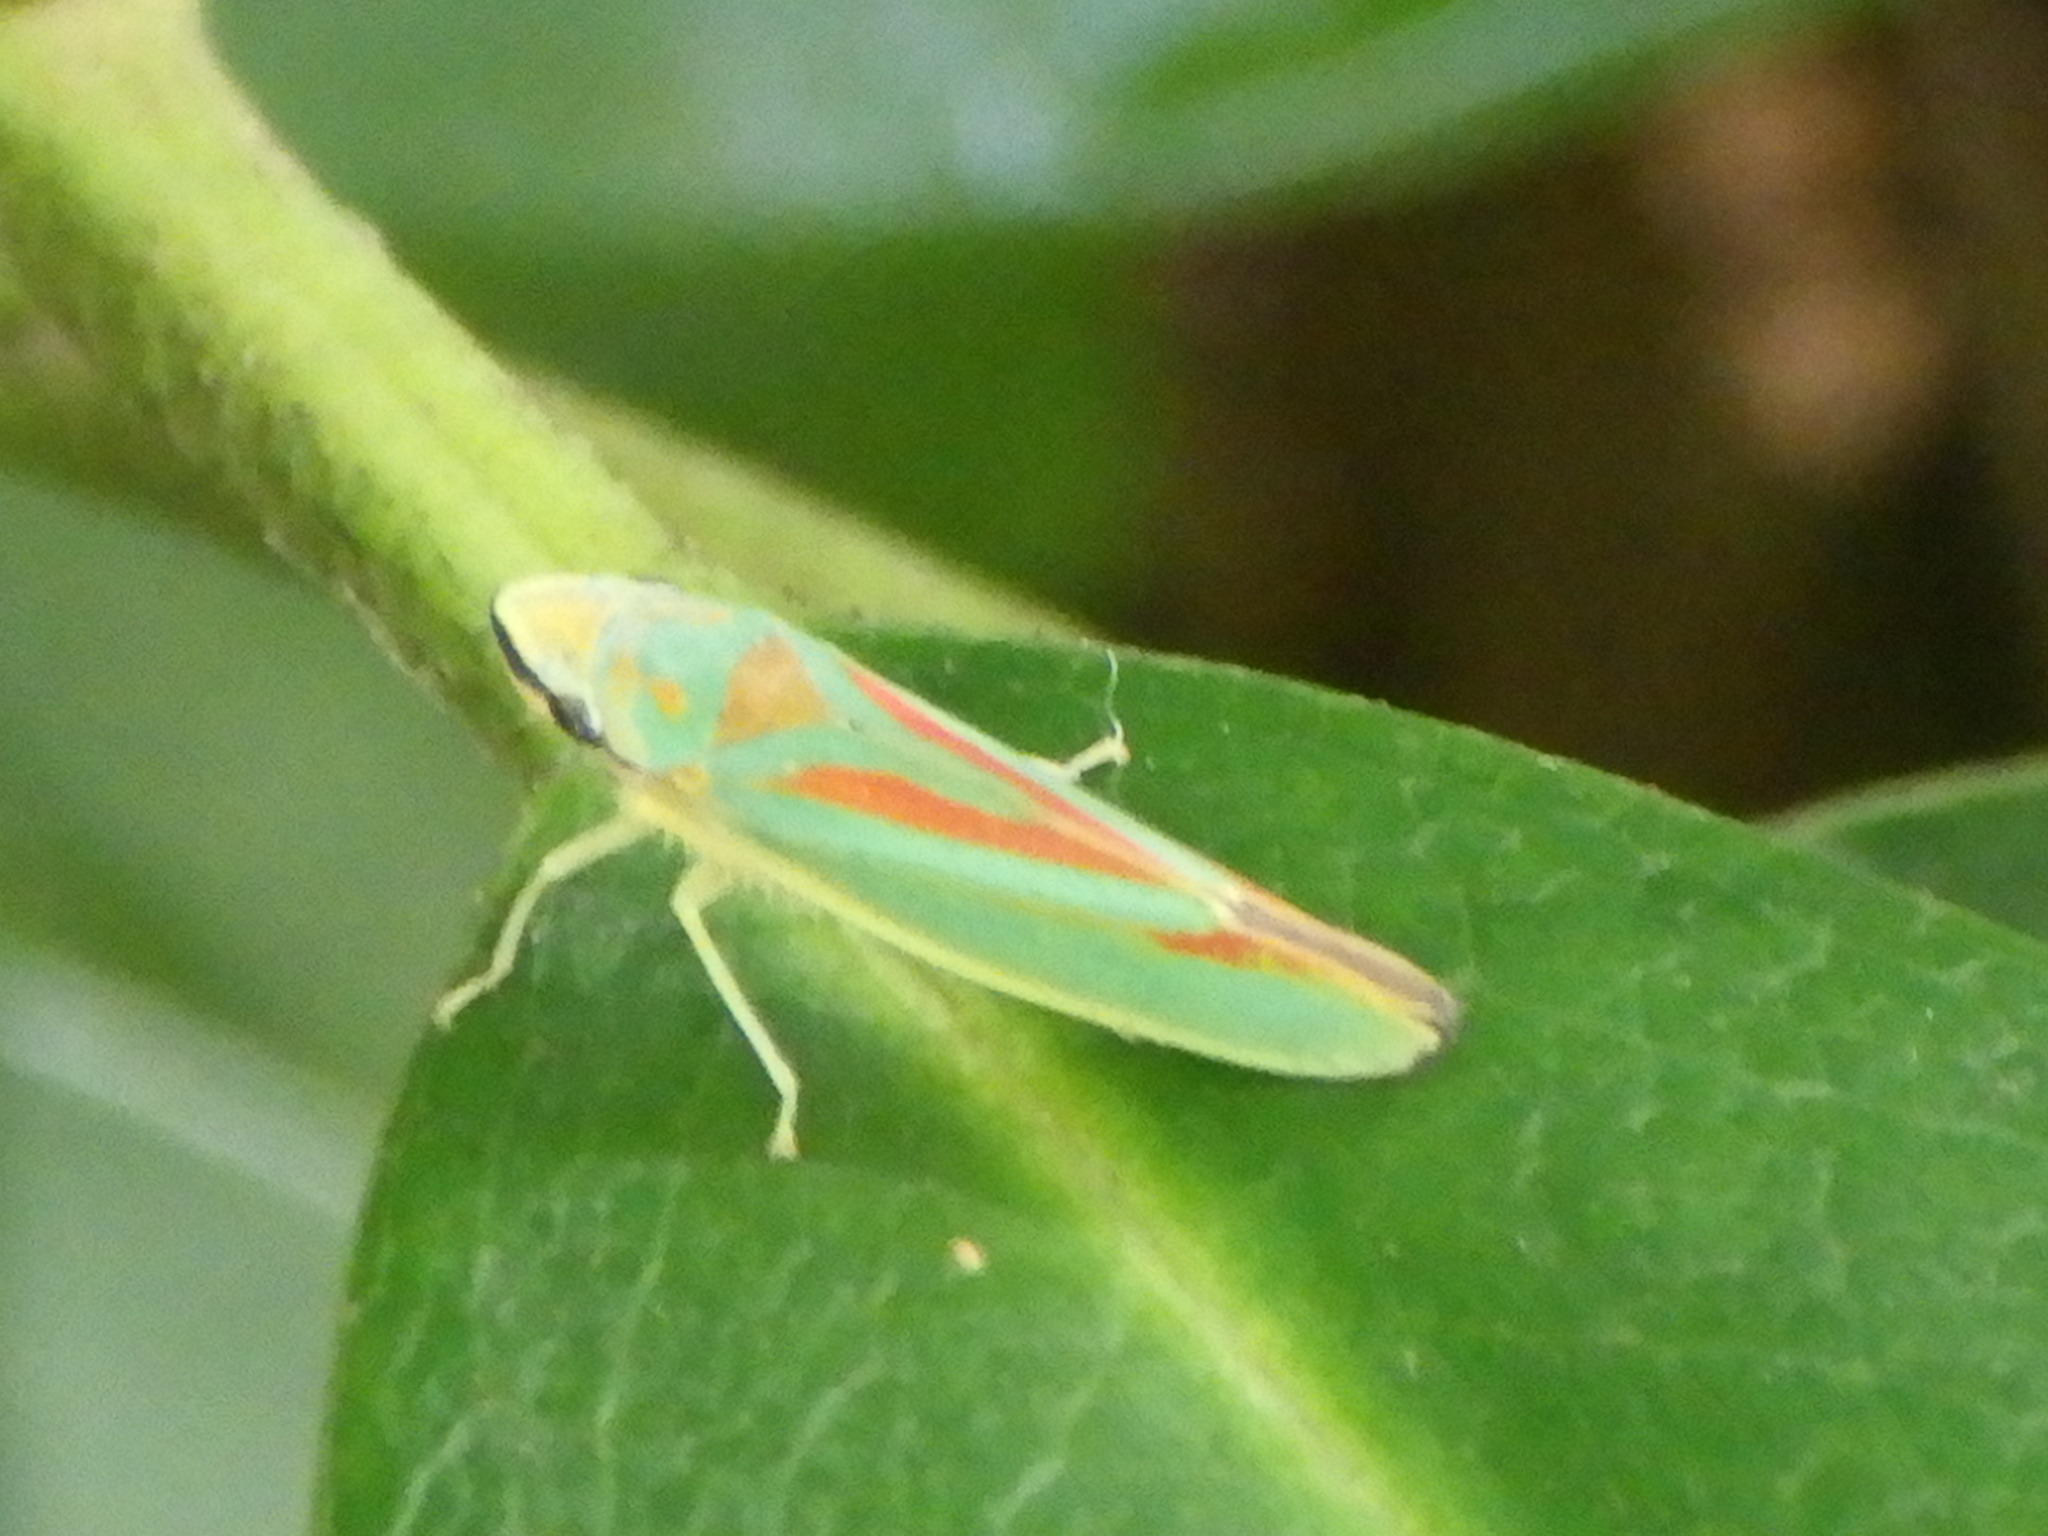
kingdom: Animalia
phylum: Arthropoda
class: Insecta
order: Hemiptera
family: Cicadellidae
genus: Graphocephala
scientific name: Graphocephala fennahi
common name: Rhododendron leafhopper
